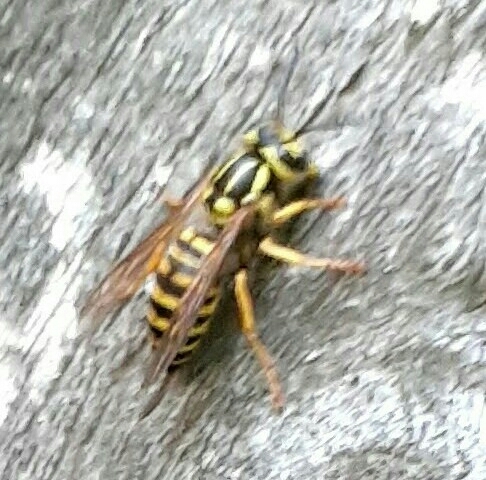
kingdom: Animalia
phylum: Arthropoda
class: Insecta
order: Hymenoptera
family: Vespidae
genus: Vespula
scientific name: Vespula squamosa
